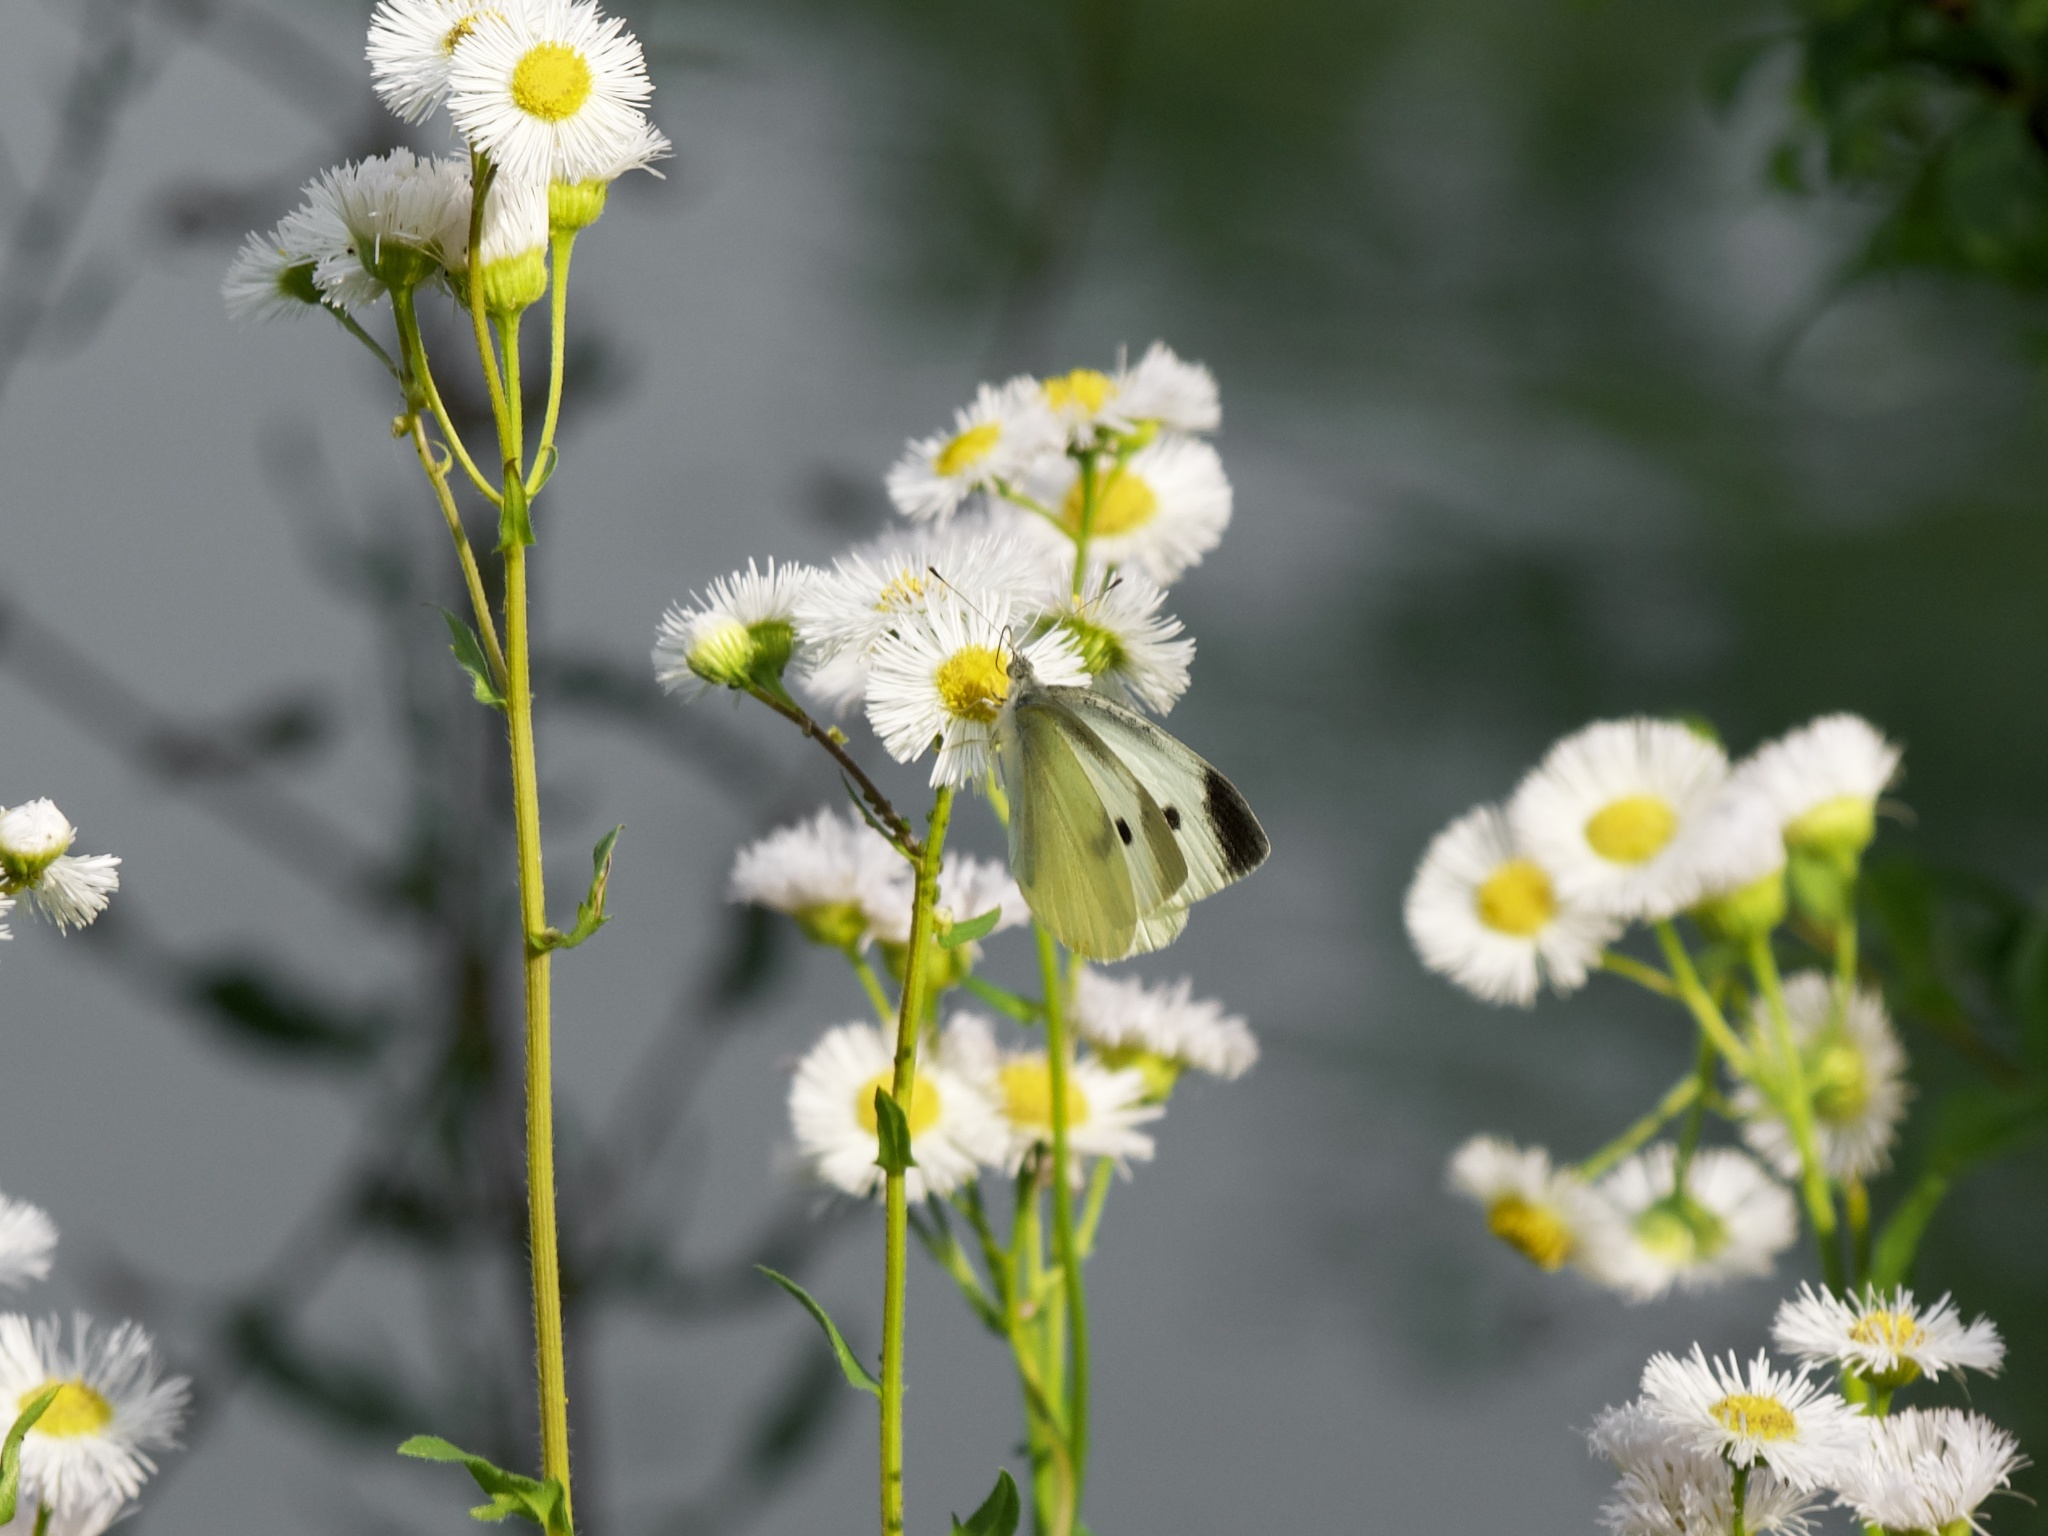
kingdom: Animalia
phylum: Arthropoda
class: Insecta
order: Lepidoptera
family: Pieridae
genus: Pieris
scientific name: Pieris rapae
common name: Small white
